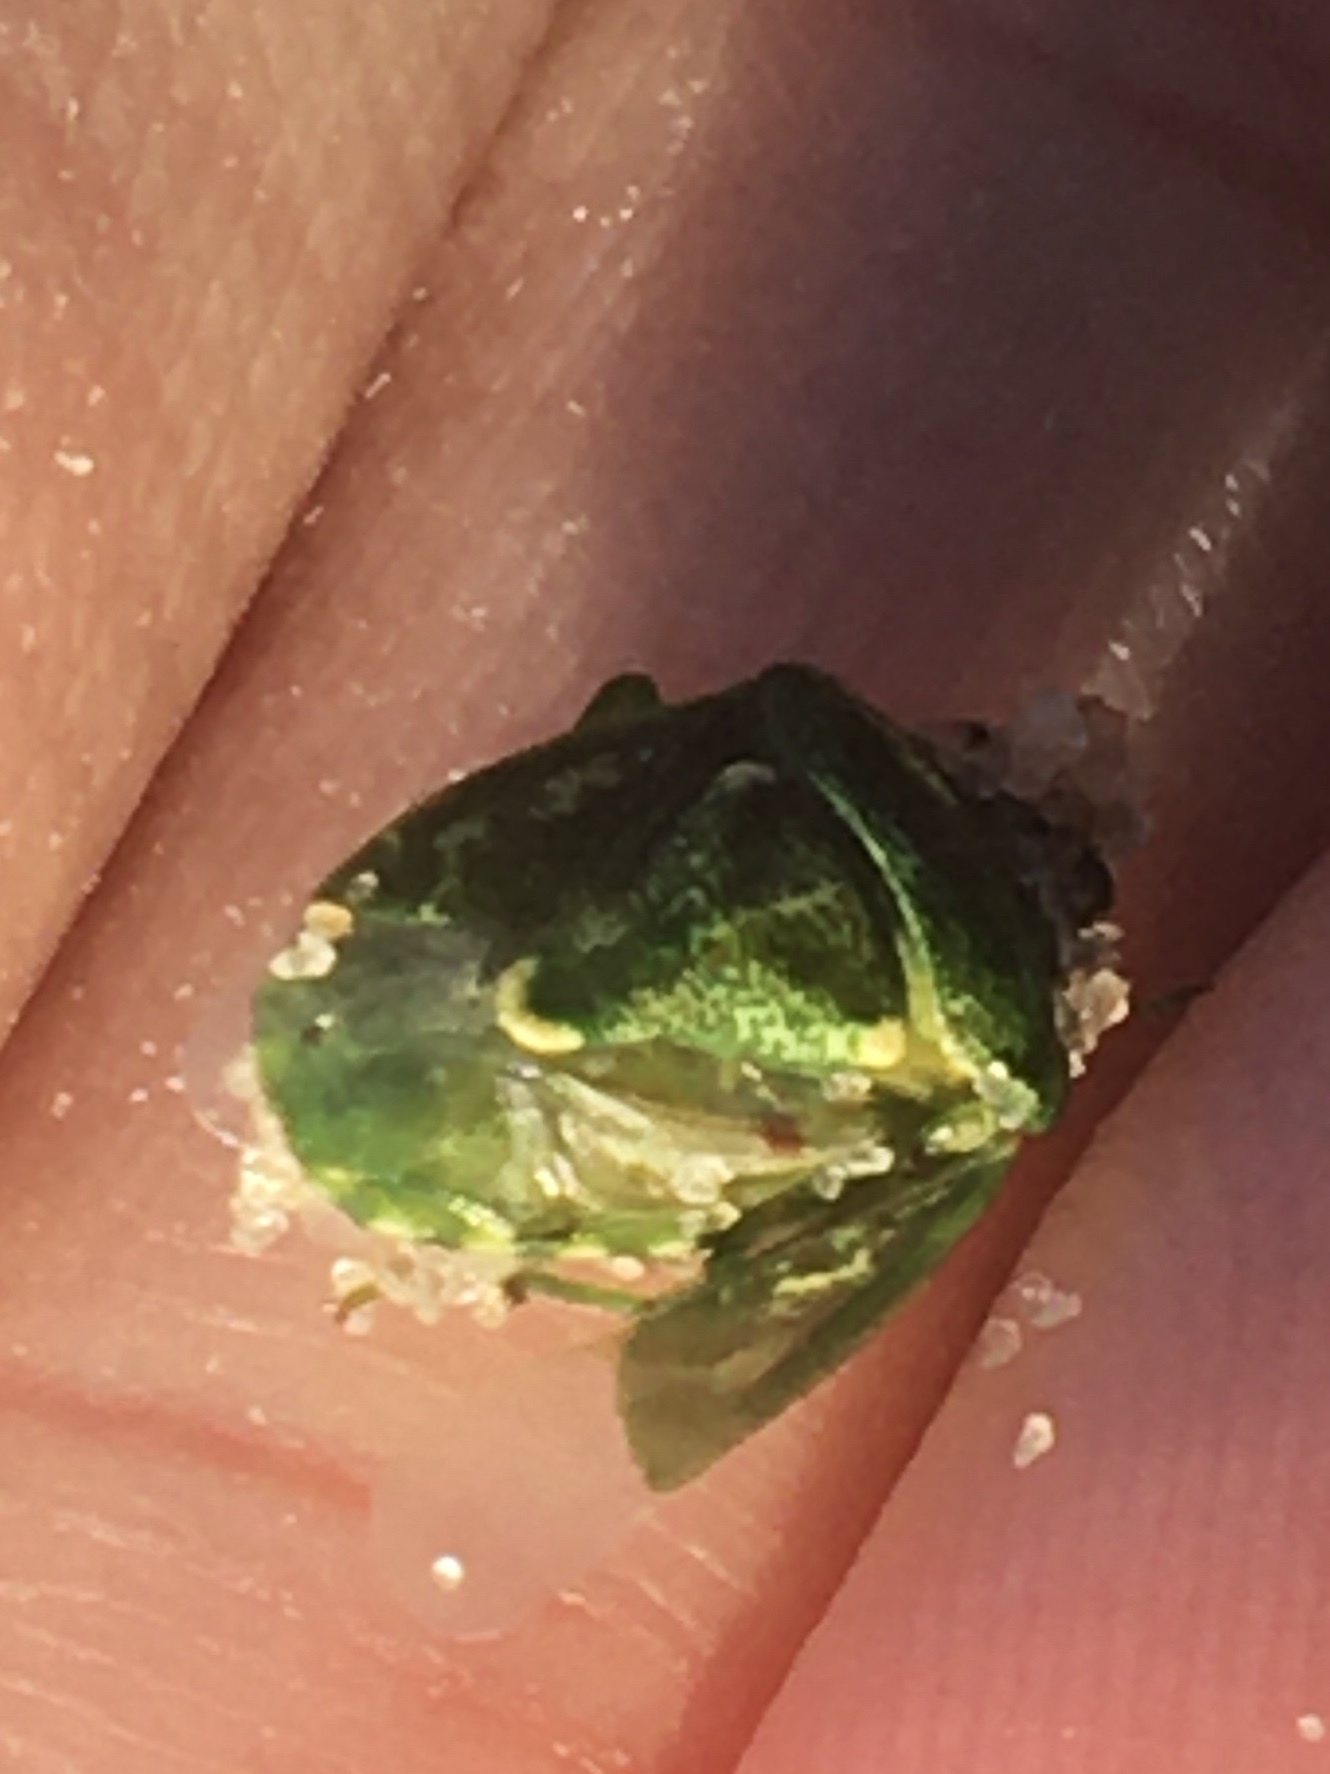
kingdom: Animalia
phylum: Arthropoda
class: Insecta
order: Hemiptera
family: Pentatomidae
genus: Banasa
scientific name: Banasa euchlora
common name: Cedar berry bug
